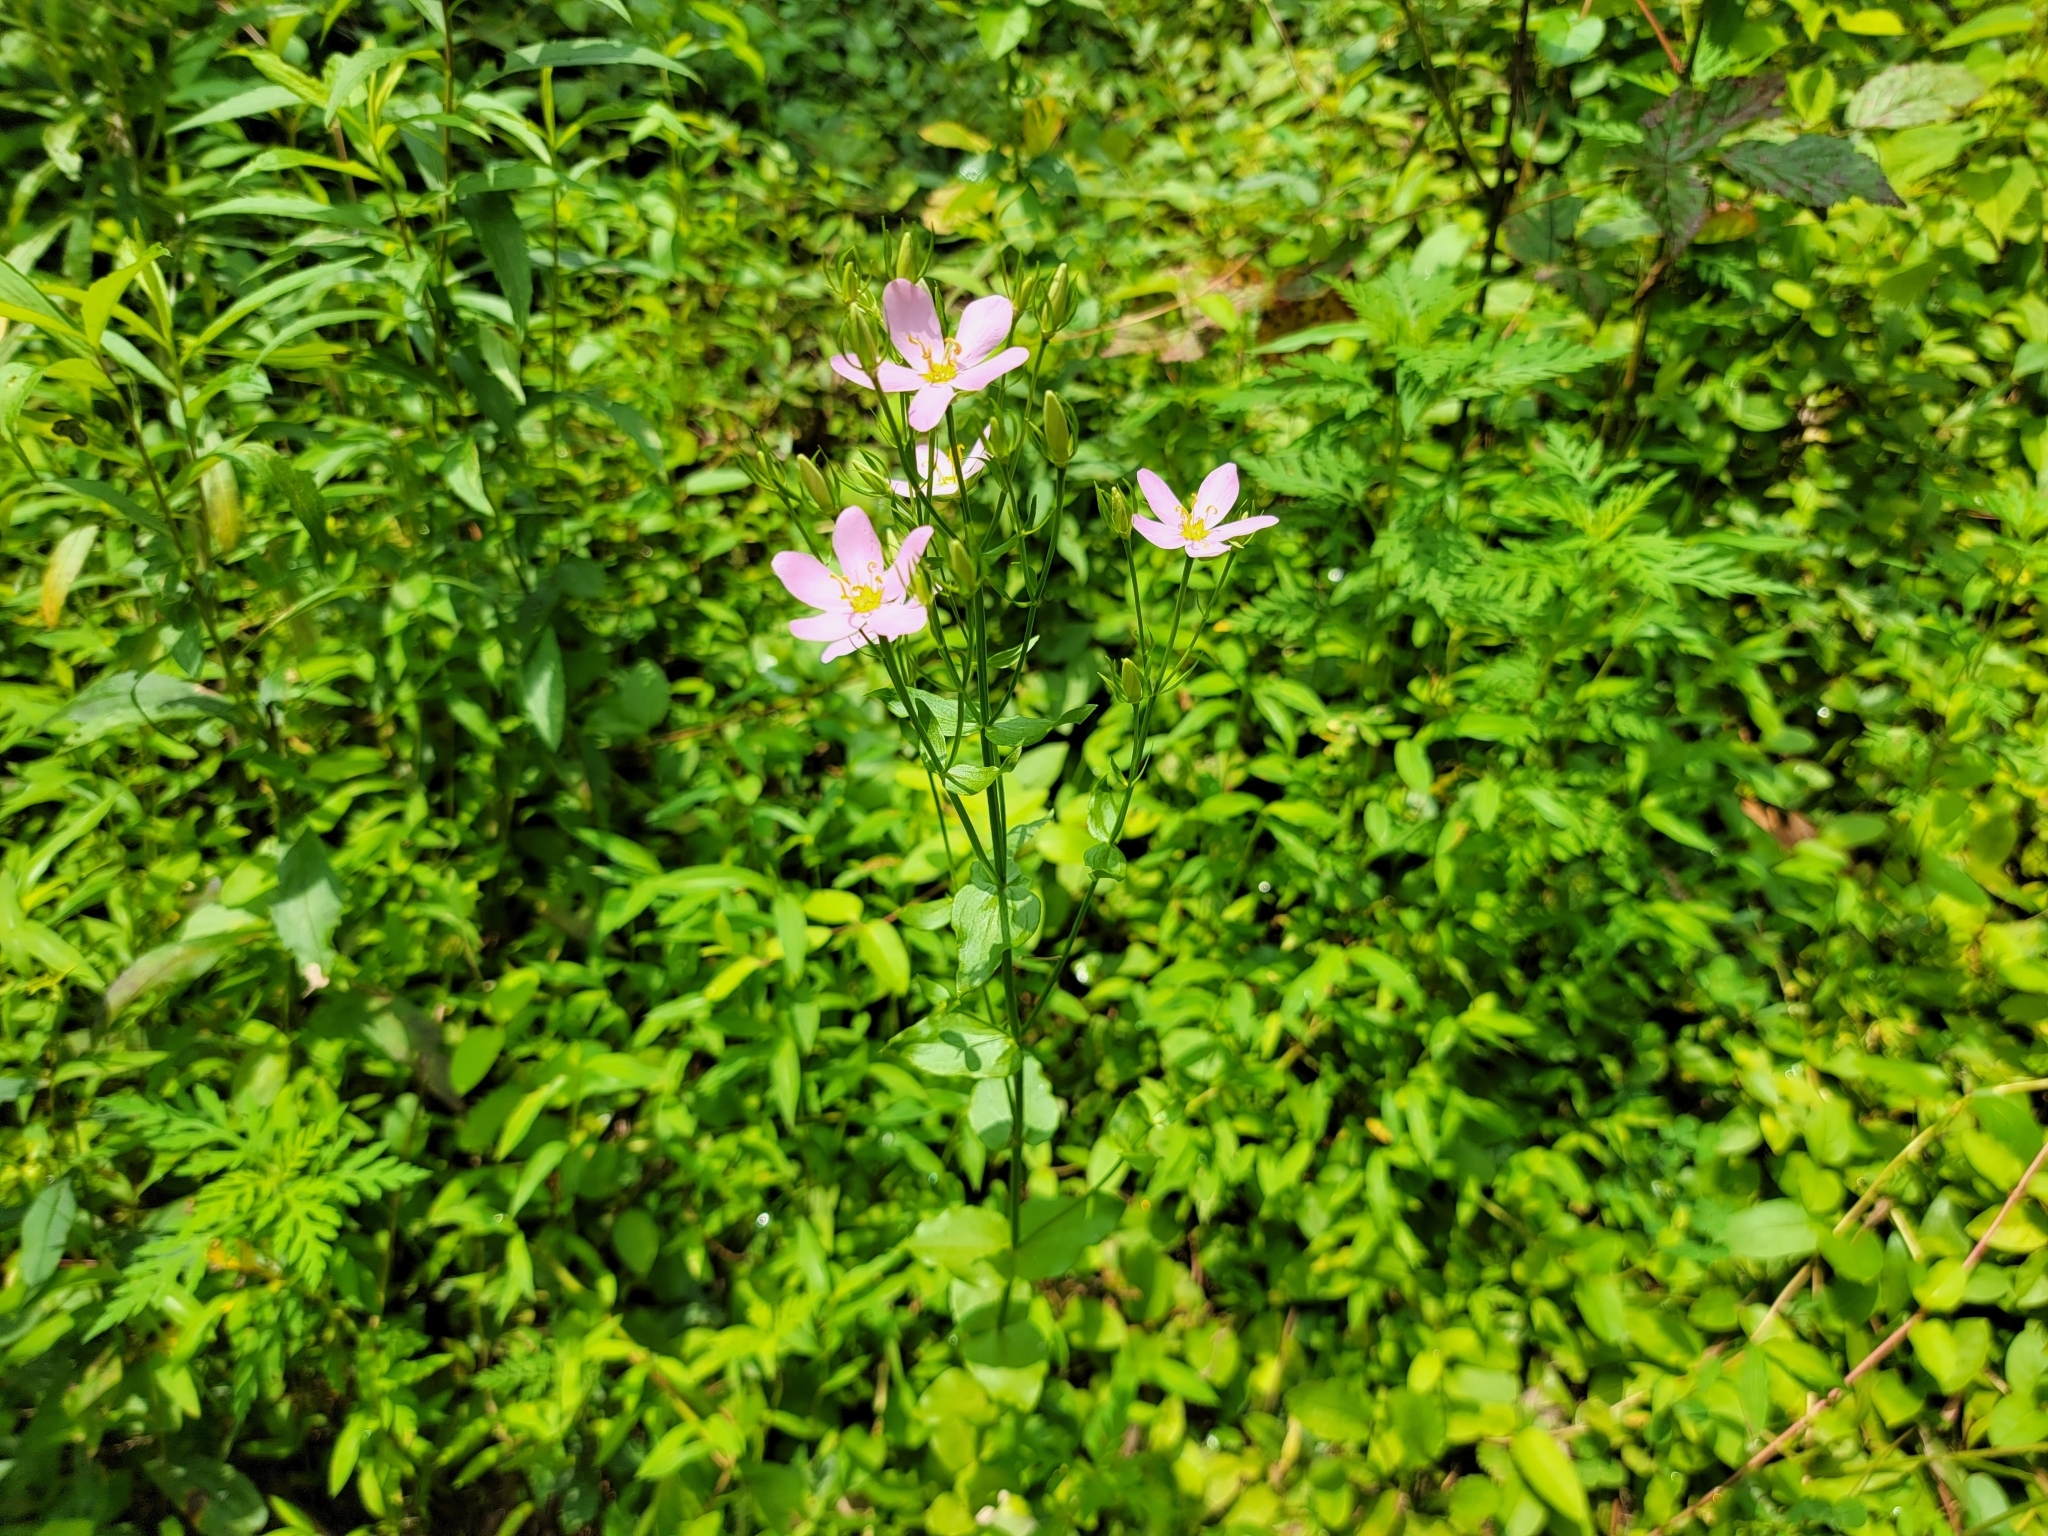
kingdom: Plantae
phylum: Tracheophyta
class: Magnoliopsida
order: Gentianales
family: Gentianaceae
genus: Sabatia
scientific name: Sabatia angularis
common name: Rose-pink
